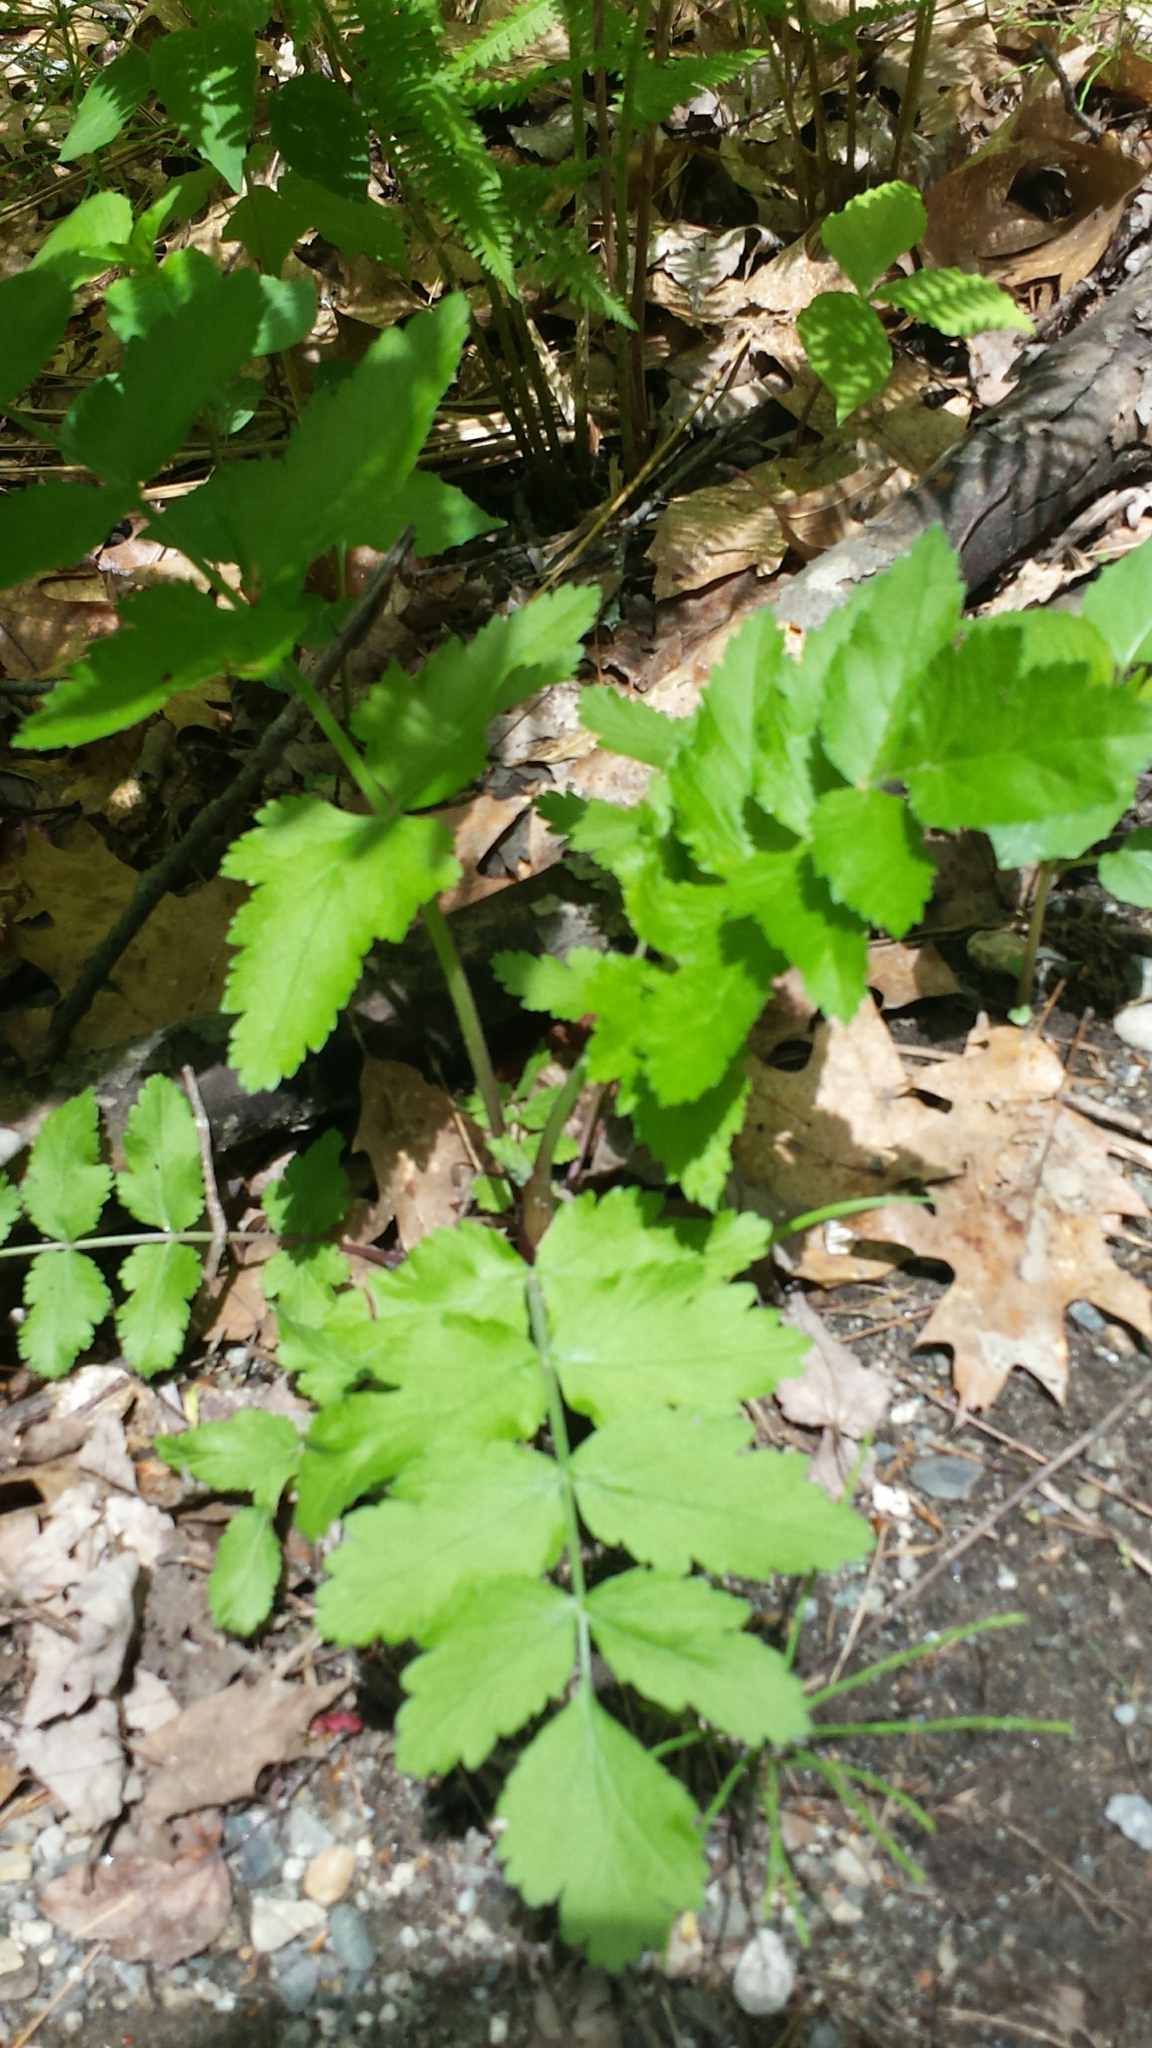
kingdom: Plantae
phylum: Tracheophyta
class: Magnoliopsida
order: Apiales
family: Apiaceae
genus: Pastinaca
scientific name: Pastinaca sativa
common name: Wild parsnip
